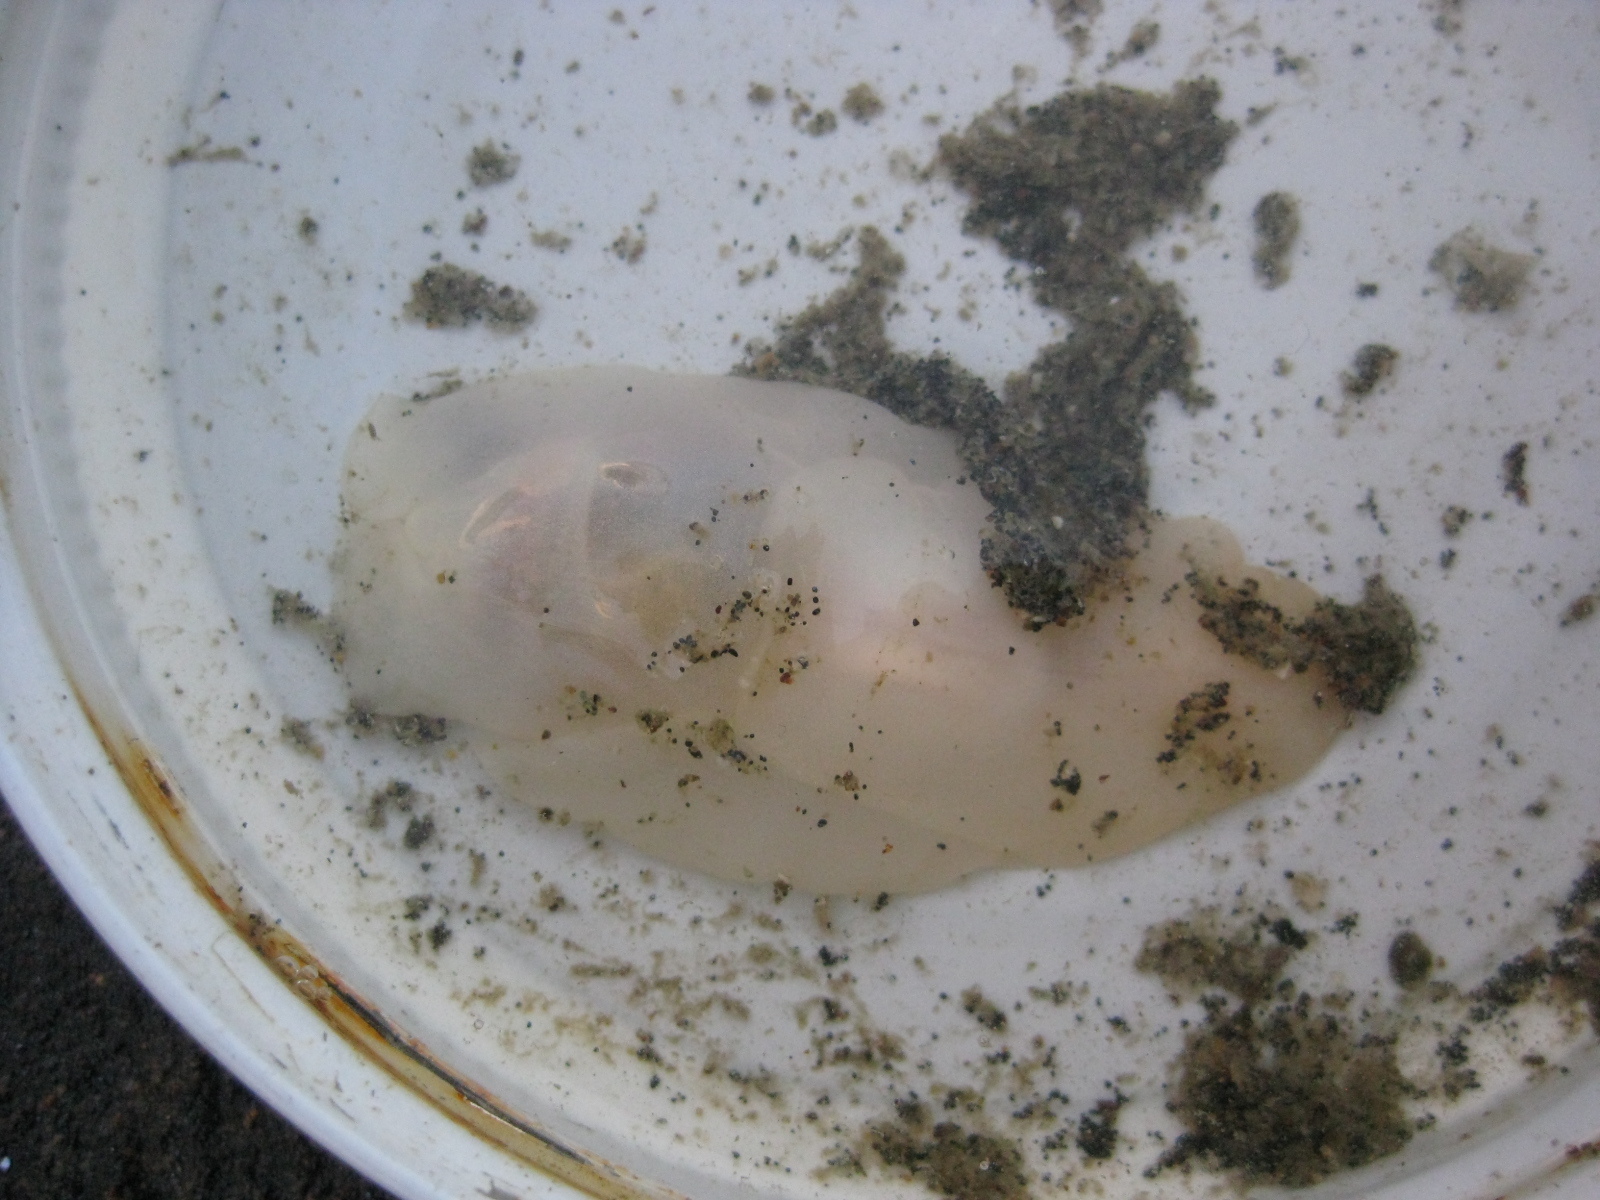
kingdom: Animalia
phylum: Mollusca
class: Gastropoda
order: Cephalaspidea
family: Philinidae
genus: Philine
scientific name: Philine auriformis
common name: Sea snail
